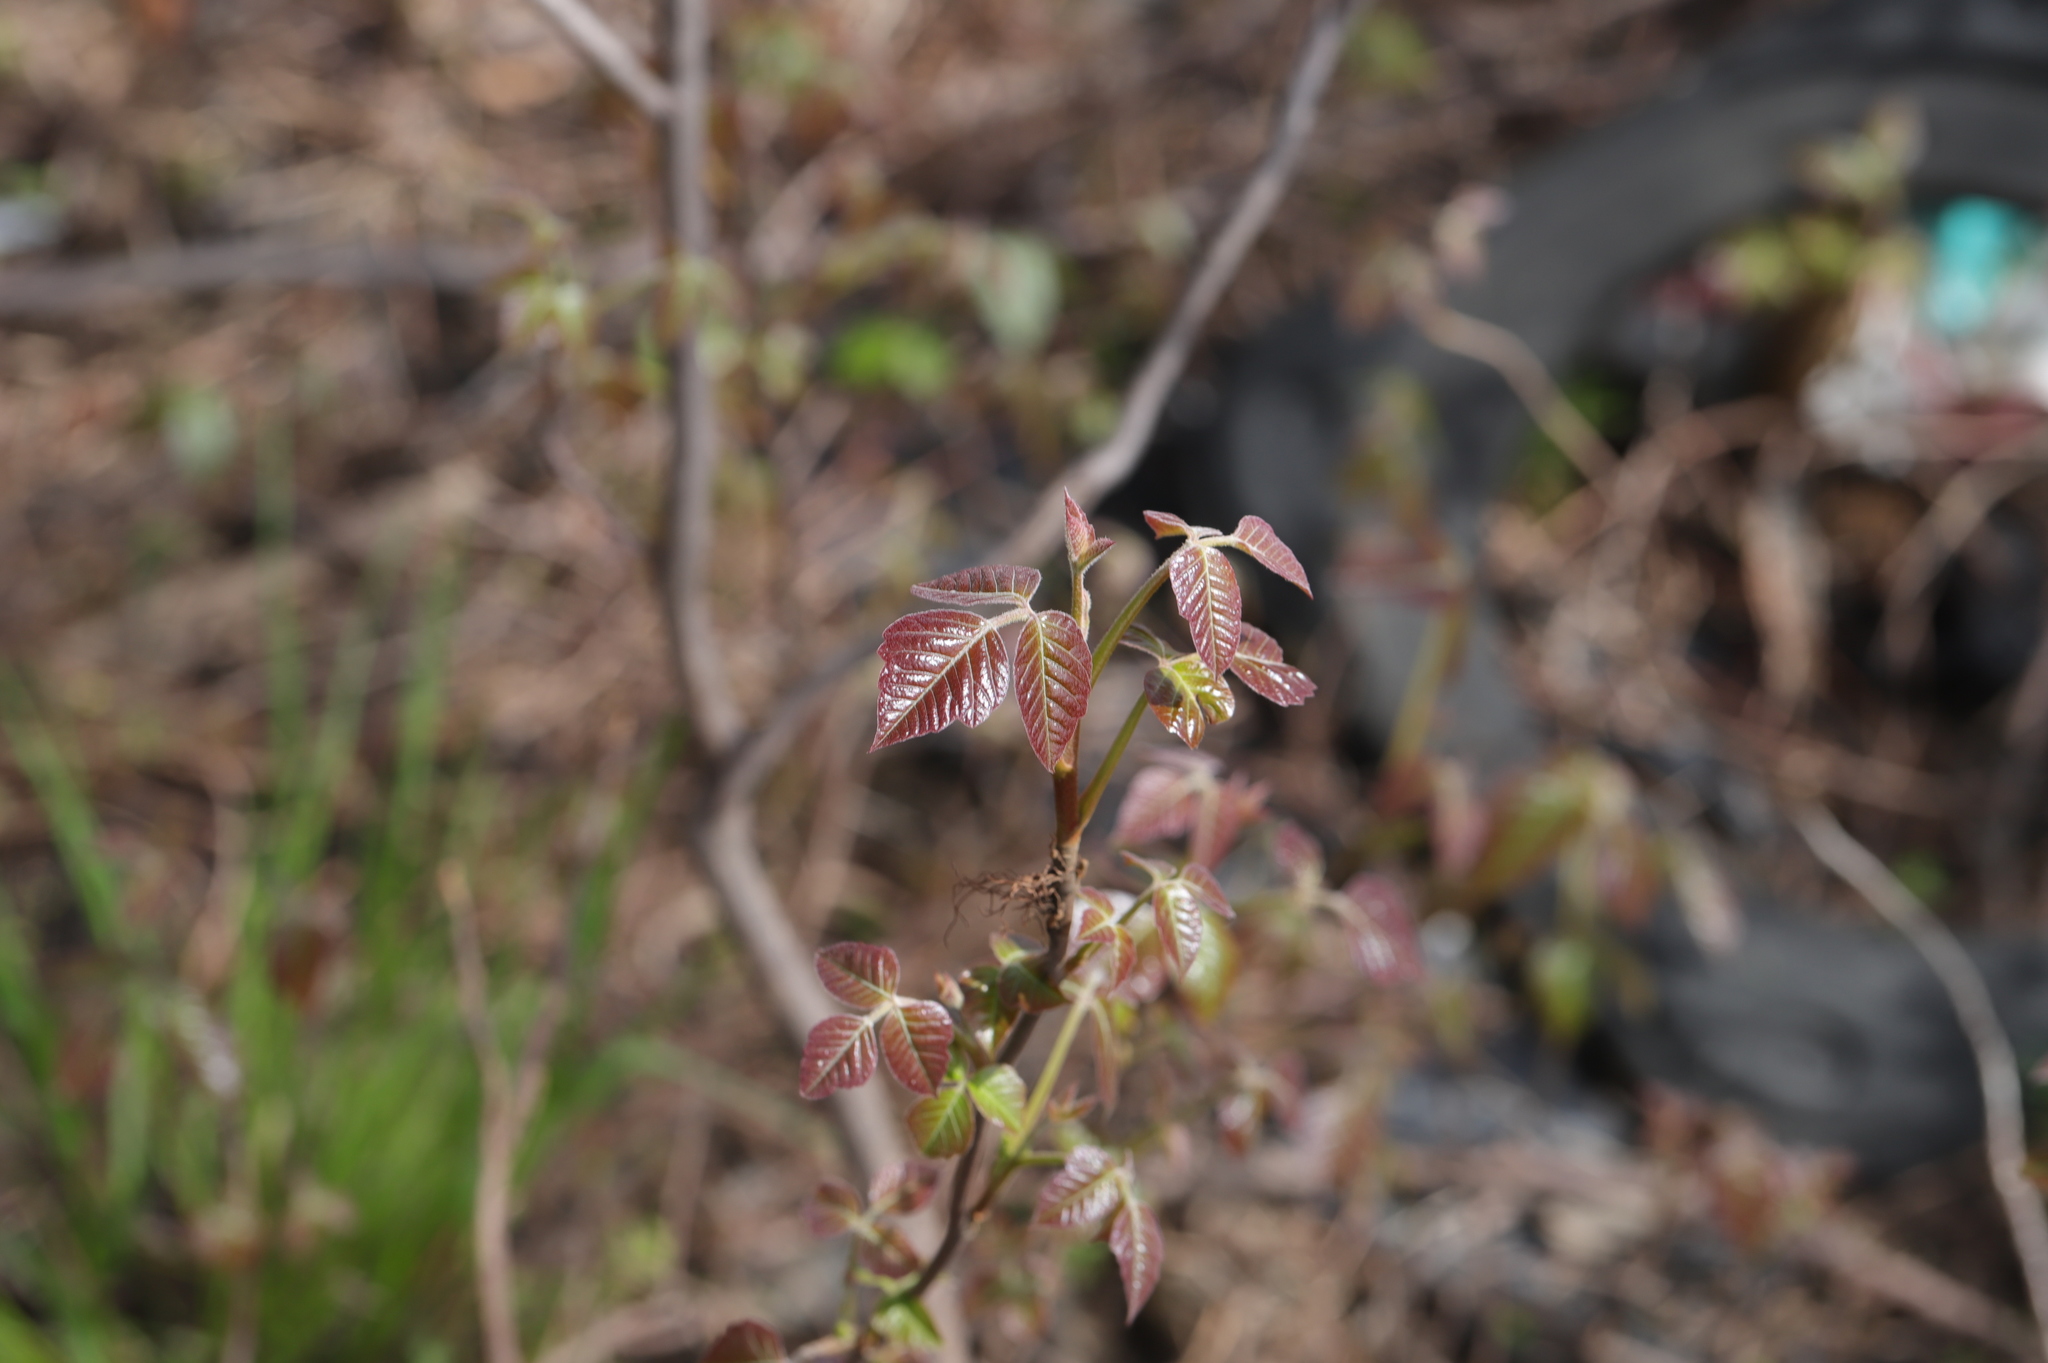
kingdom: Plantae
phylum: Tracheophyta
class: Magnoliopsida
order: Sapindales
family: Anacardiaceae
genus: Toxicodendron
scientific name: Toxicodendron radicans
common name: Poison ivy
